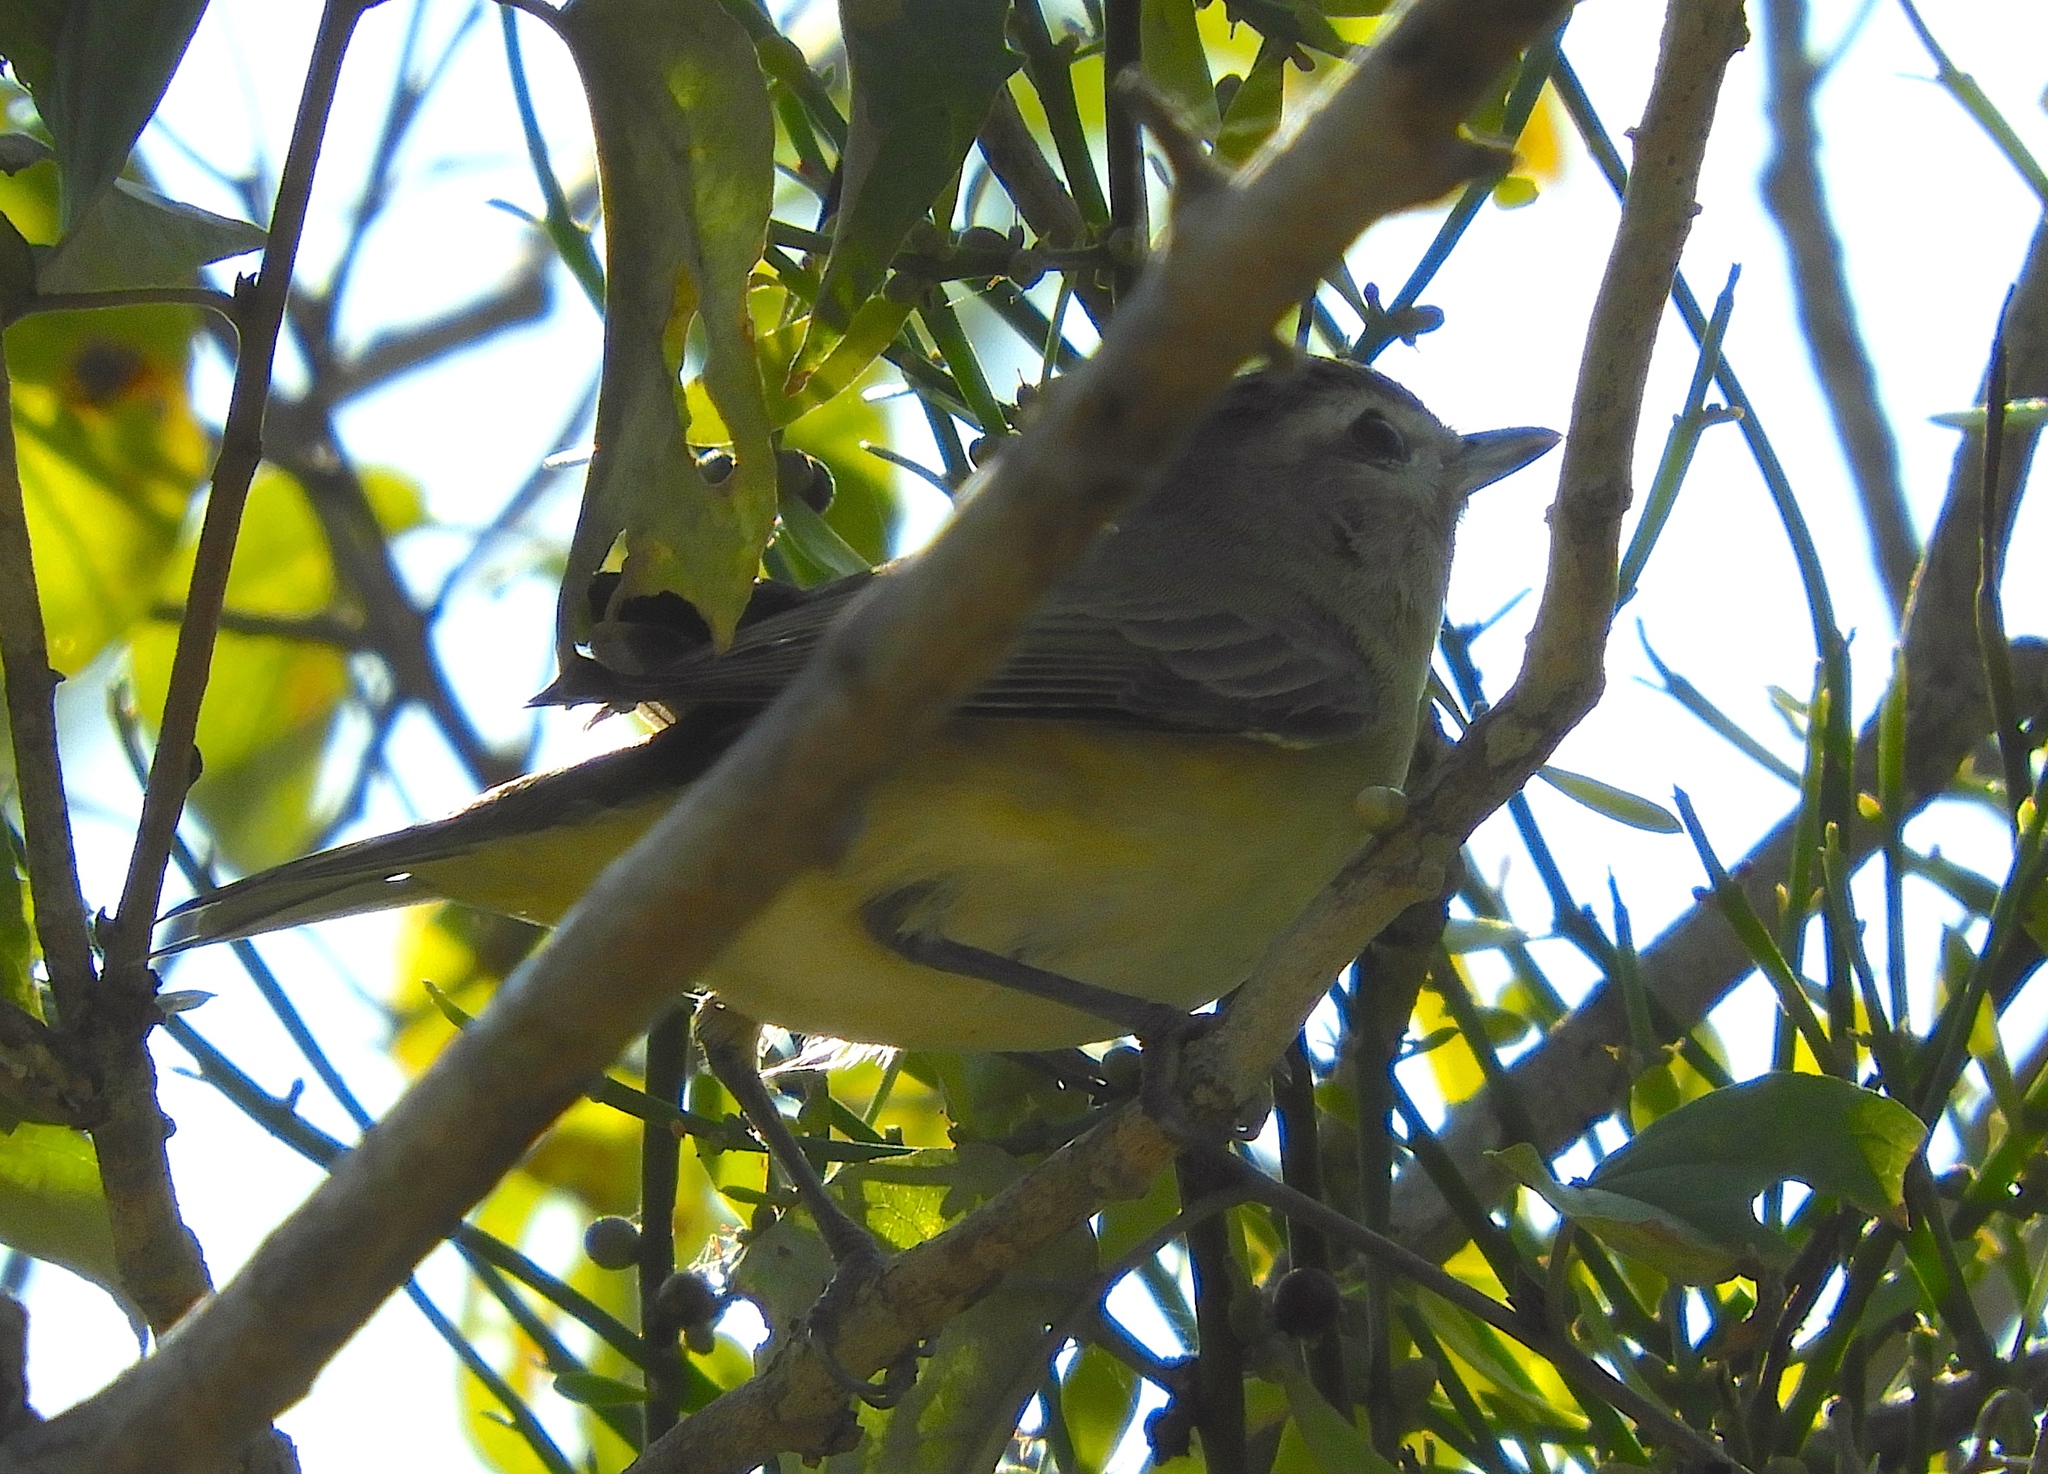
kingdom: Animalia
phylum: Chordata
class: Aves
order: Passeriformes
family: Vireonidae
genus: Vireo
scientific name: Vireo
